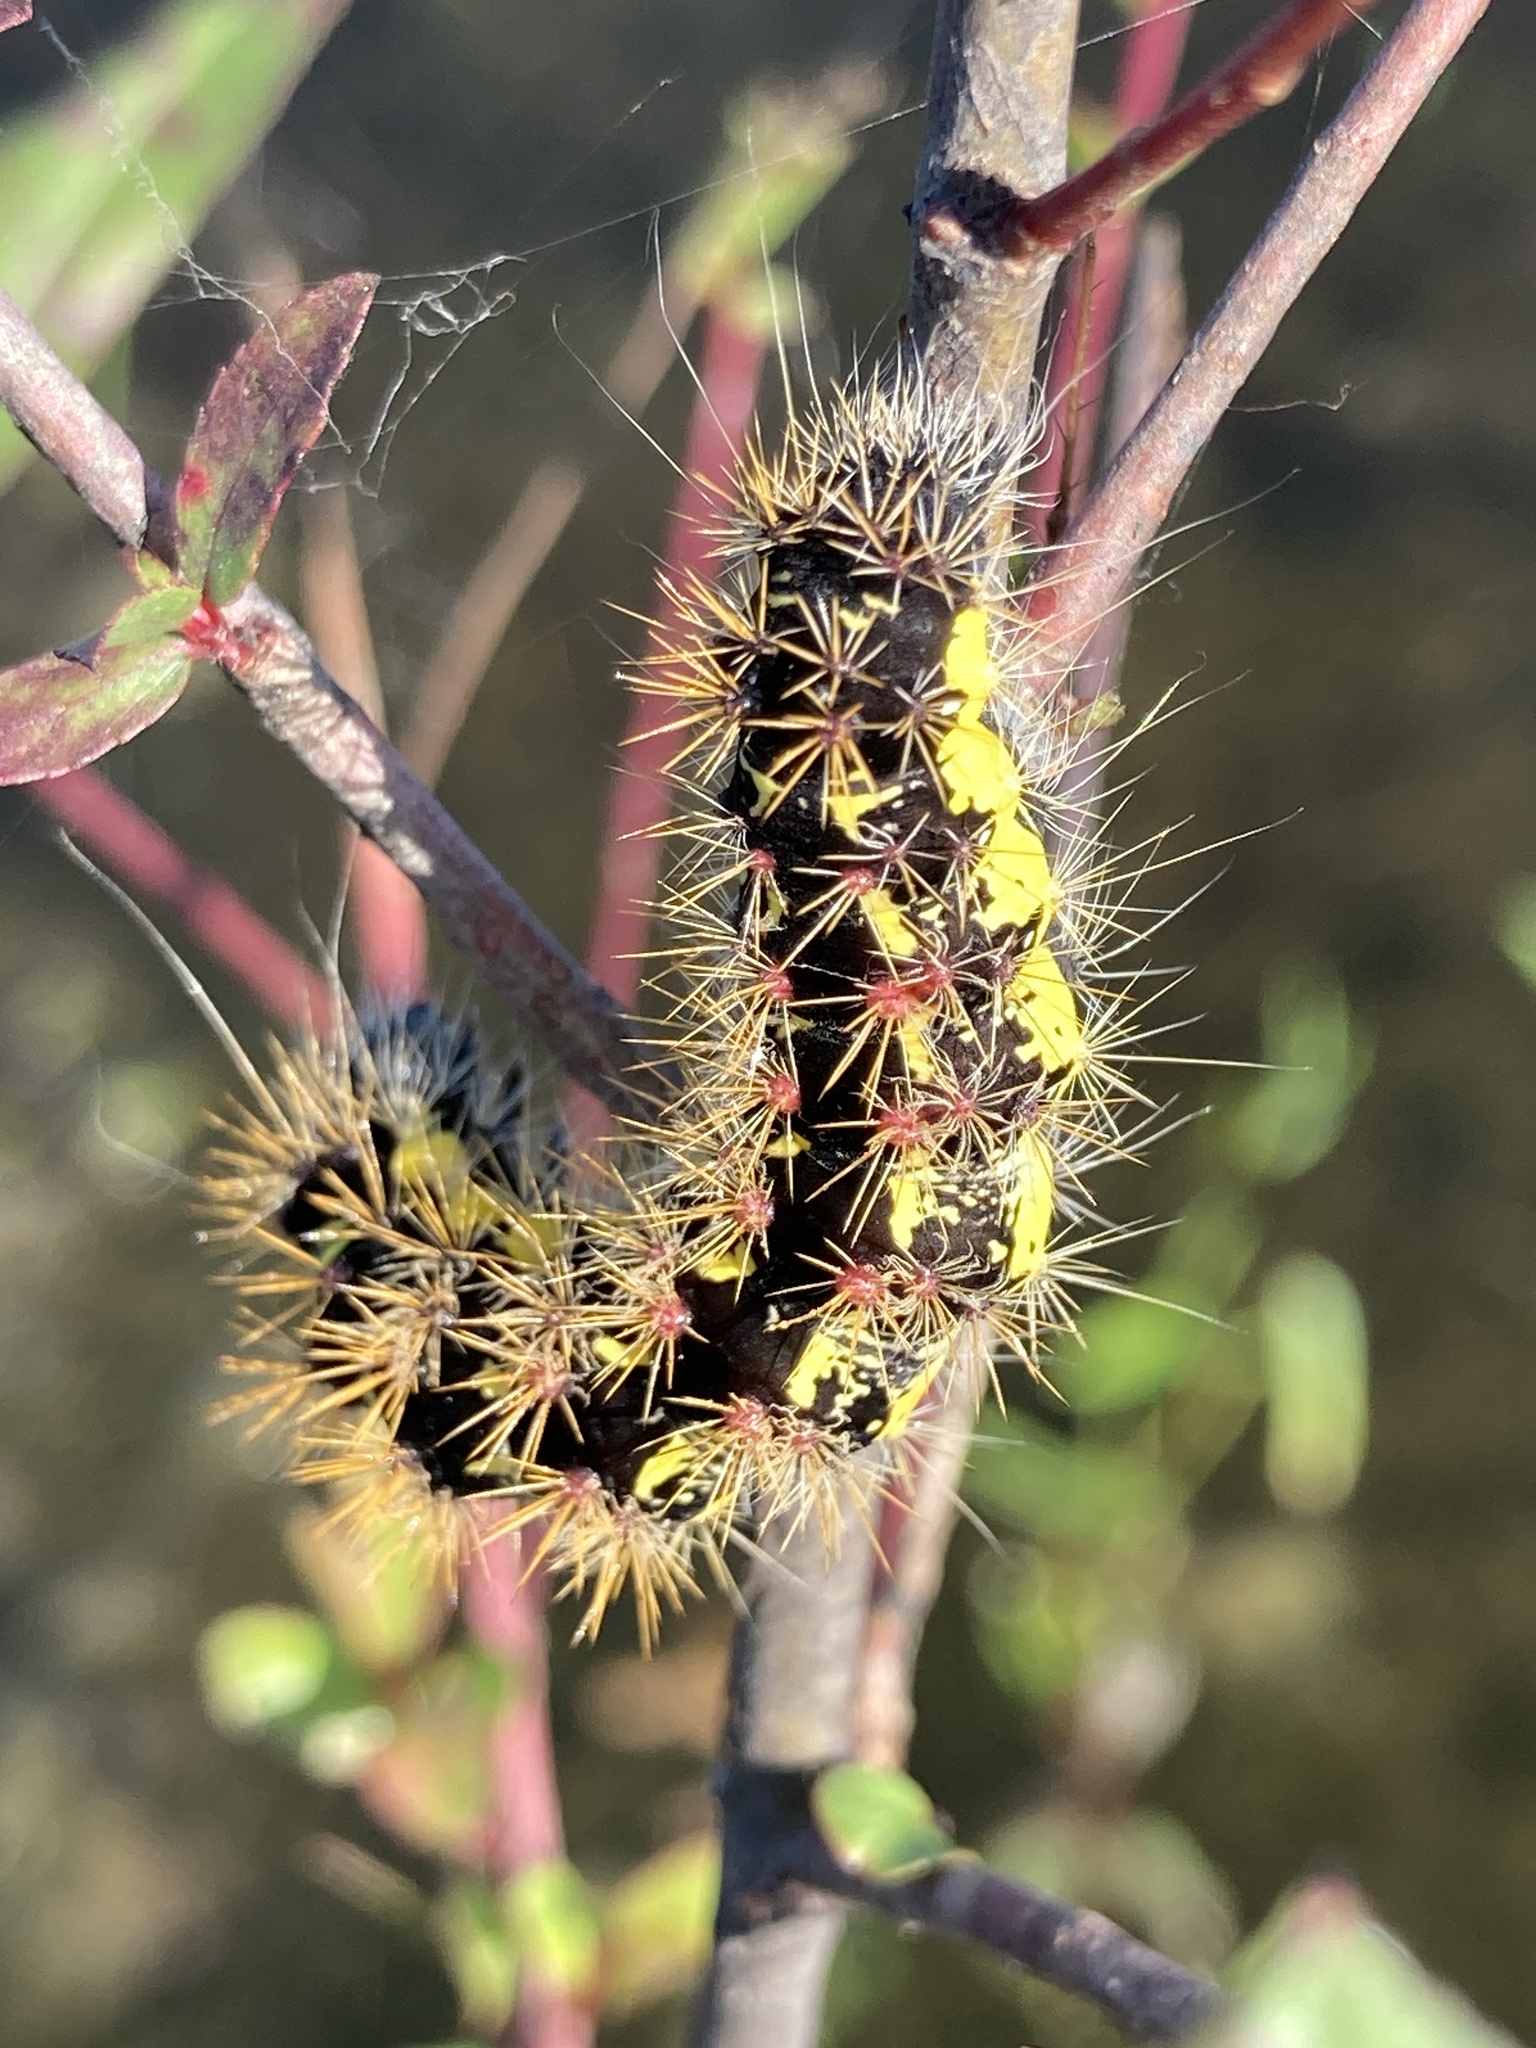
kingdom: Animalia
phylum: Arthropoda
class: Insecta
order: Lepidoptera
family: Noctuidae
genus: Acronicta
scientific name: Acronicta oblinita
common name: Smeared dagger
